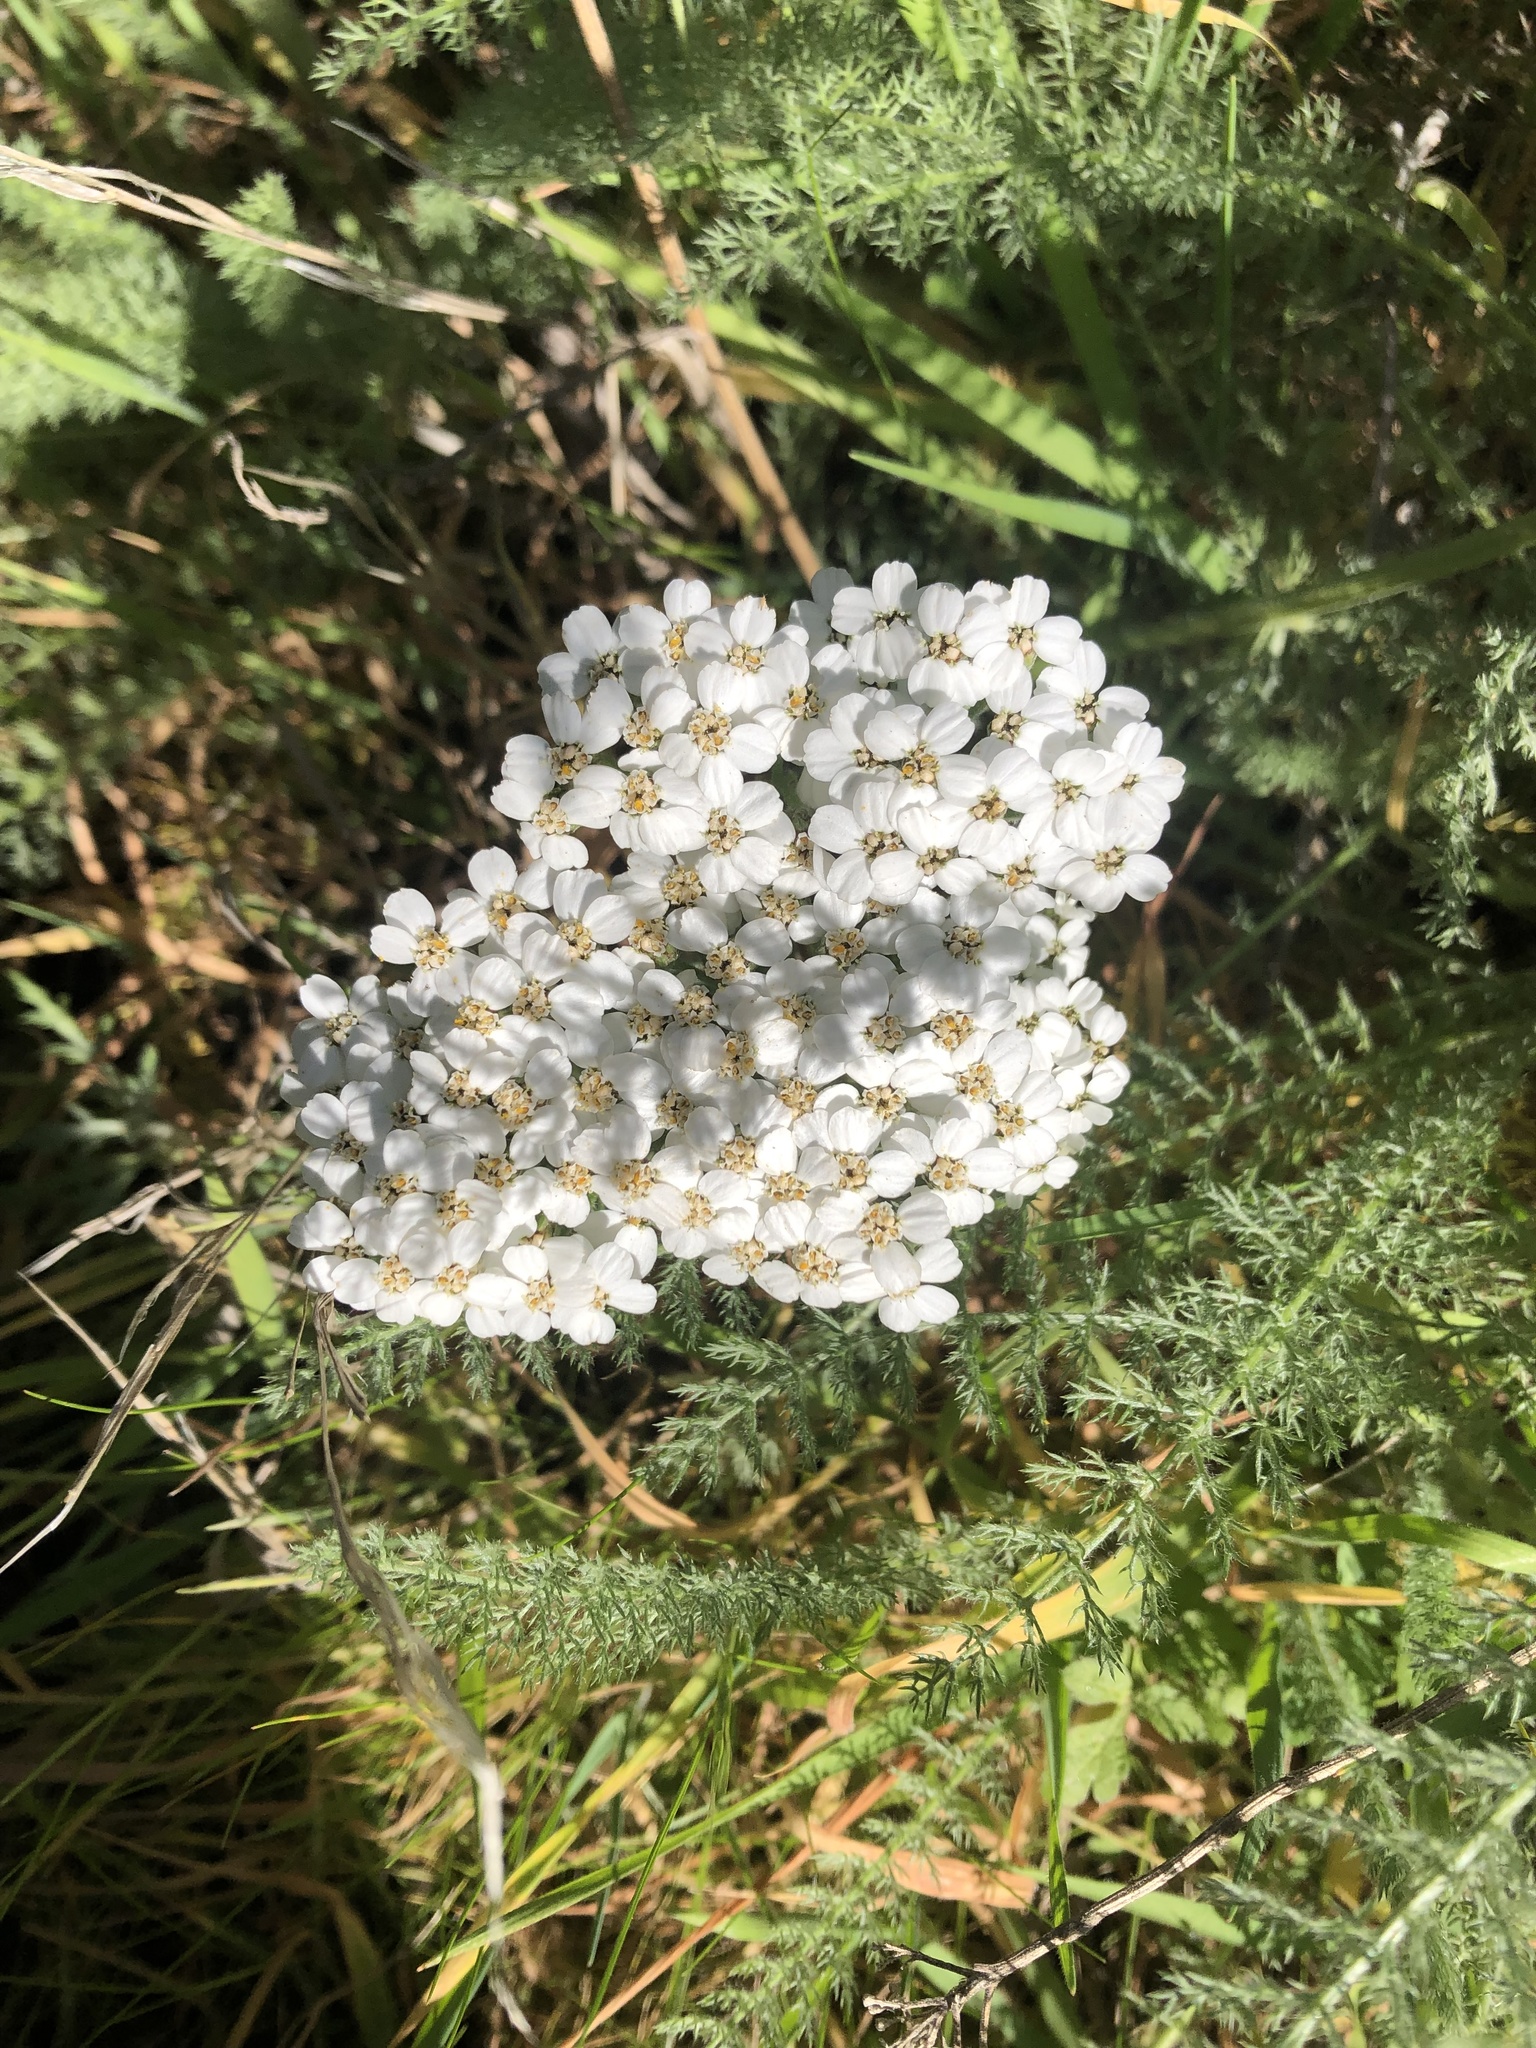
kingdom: Plantae
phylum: Tracheophyta
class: Magnoliopsida
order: Asterales
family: Asteraceae
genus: Achillea
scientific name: Achillea millefolium
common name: Yarrow
